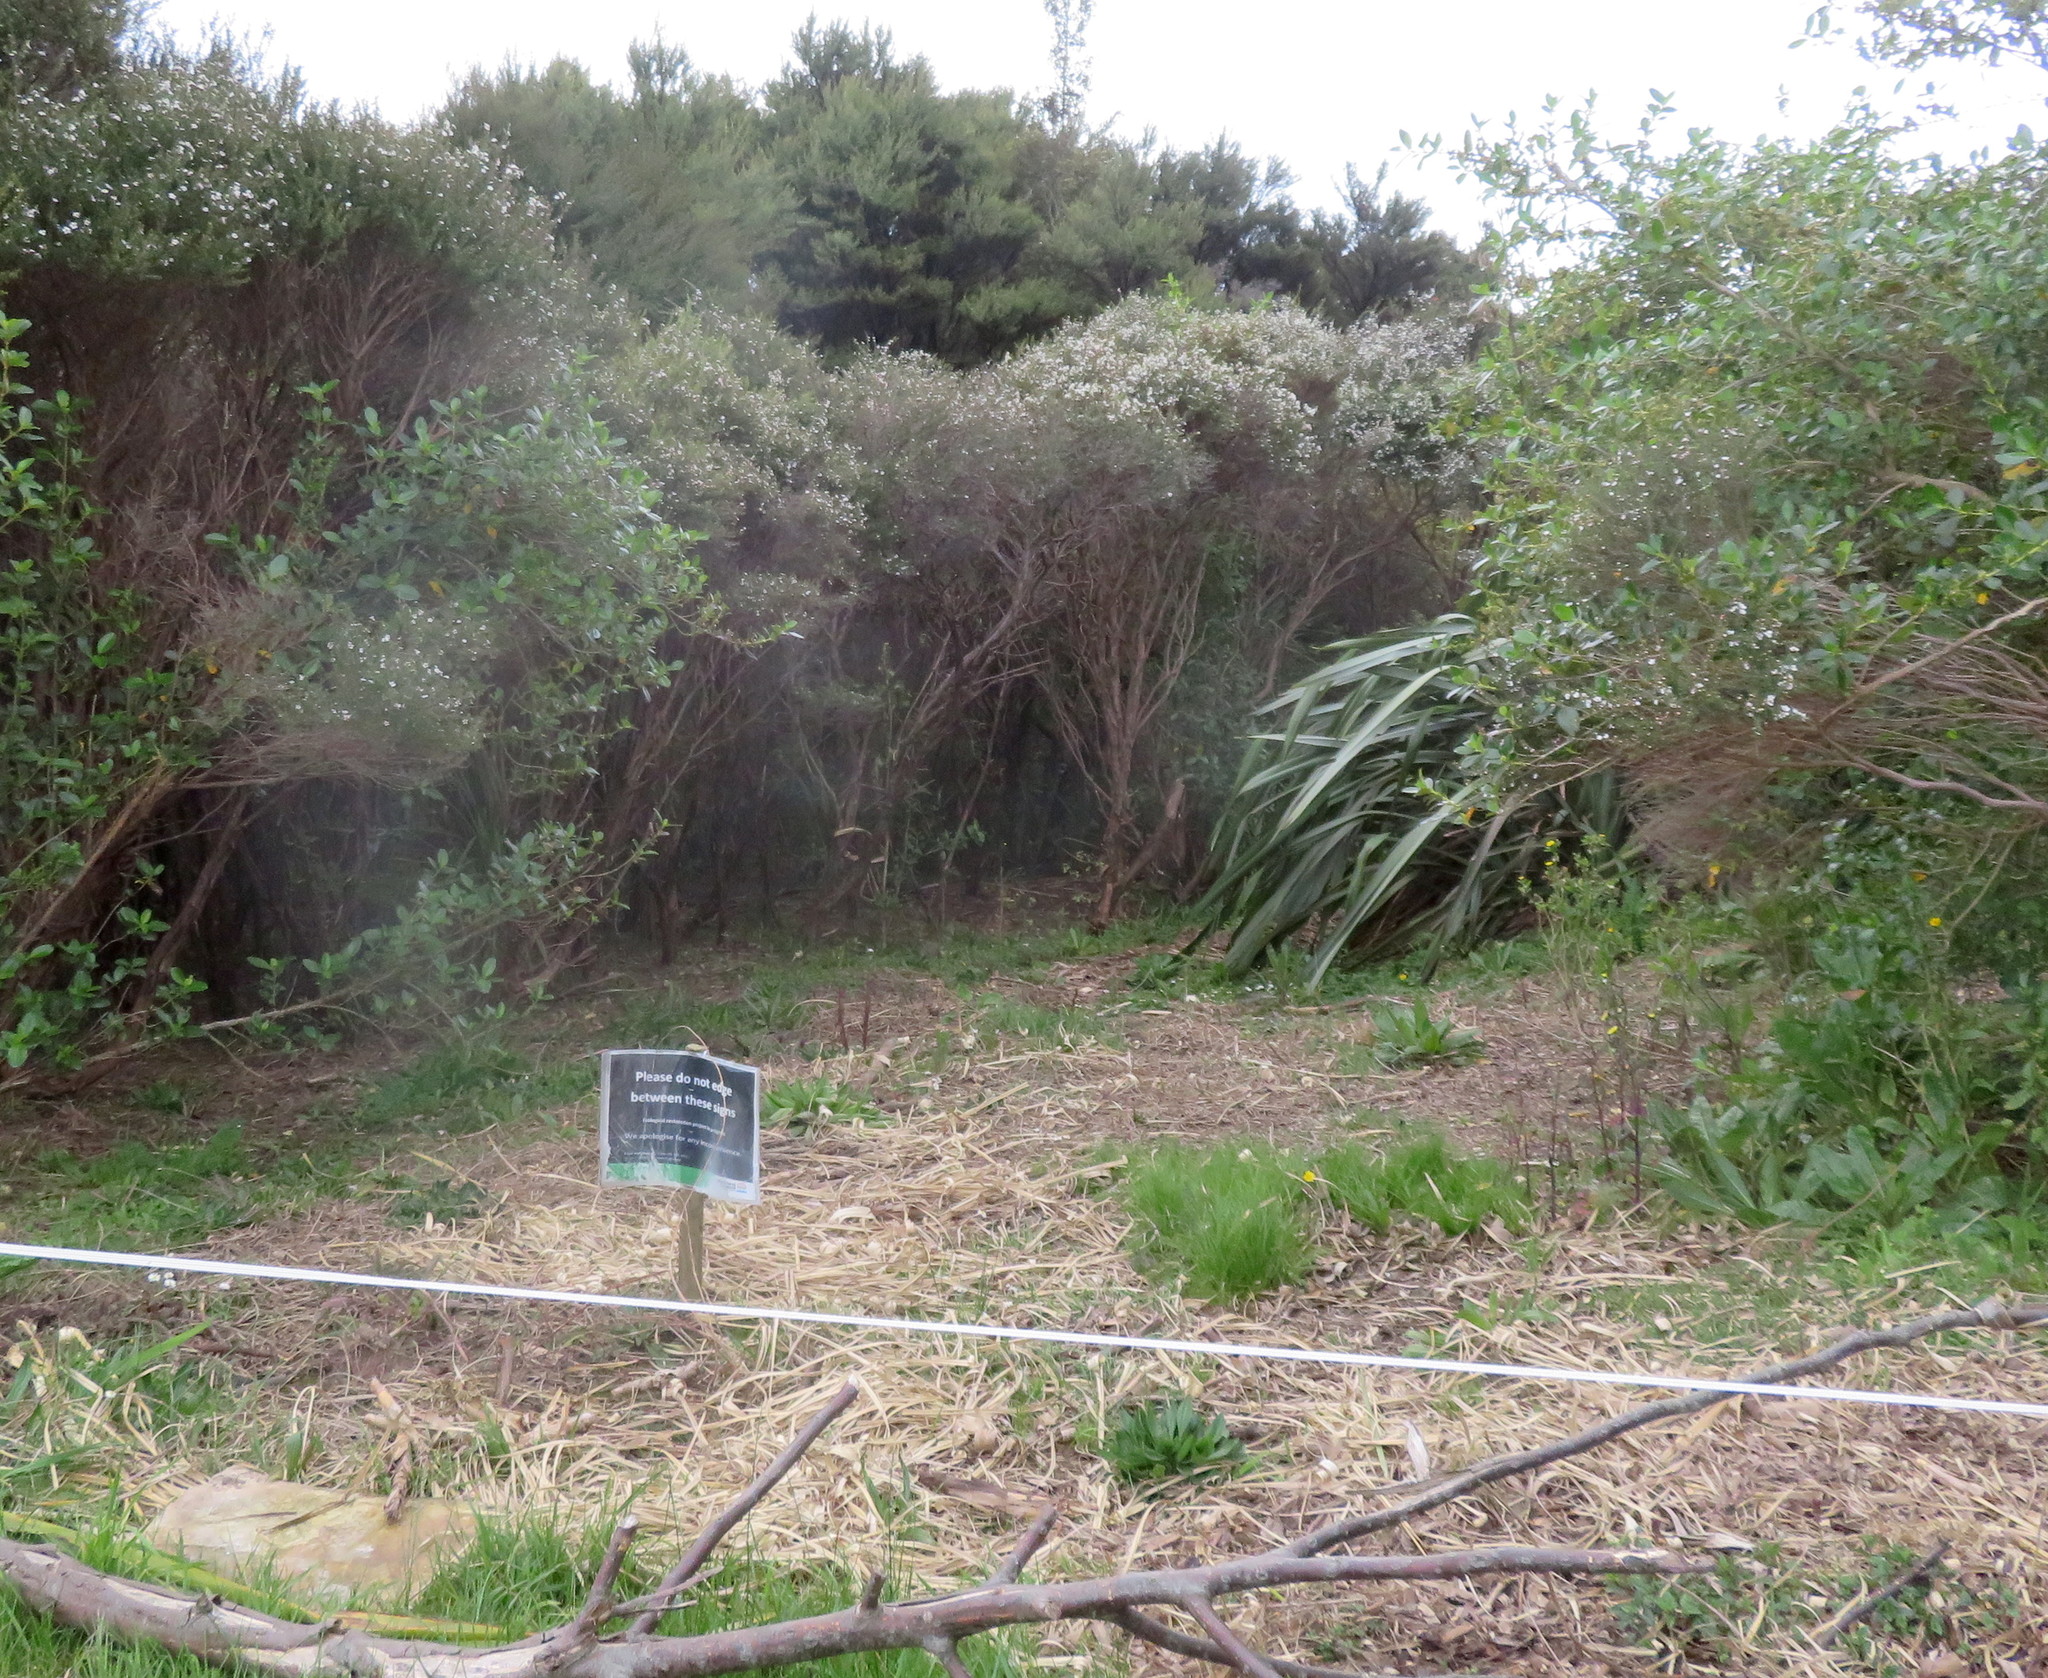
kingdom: Plantae
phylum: Tracheophyta
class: Magnoliopsida
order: Myrtales
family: Myrtaceae
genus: Leptospermum
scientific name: Leptospermum scoparium
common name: Broom tea-tree
